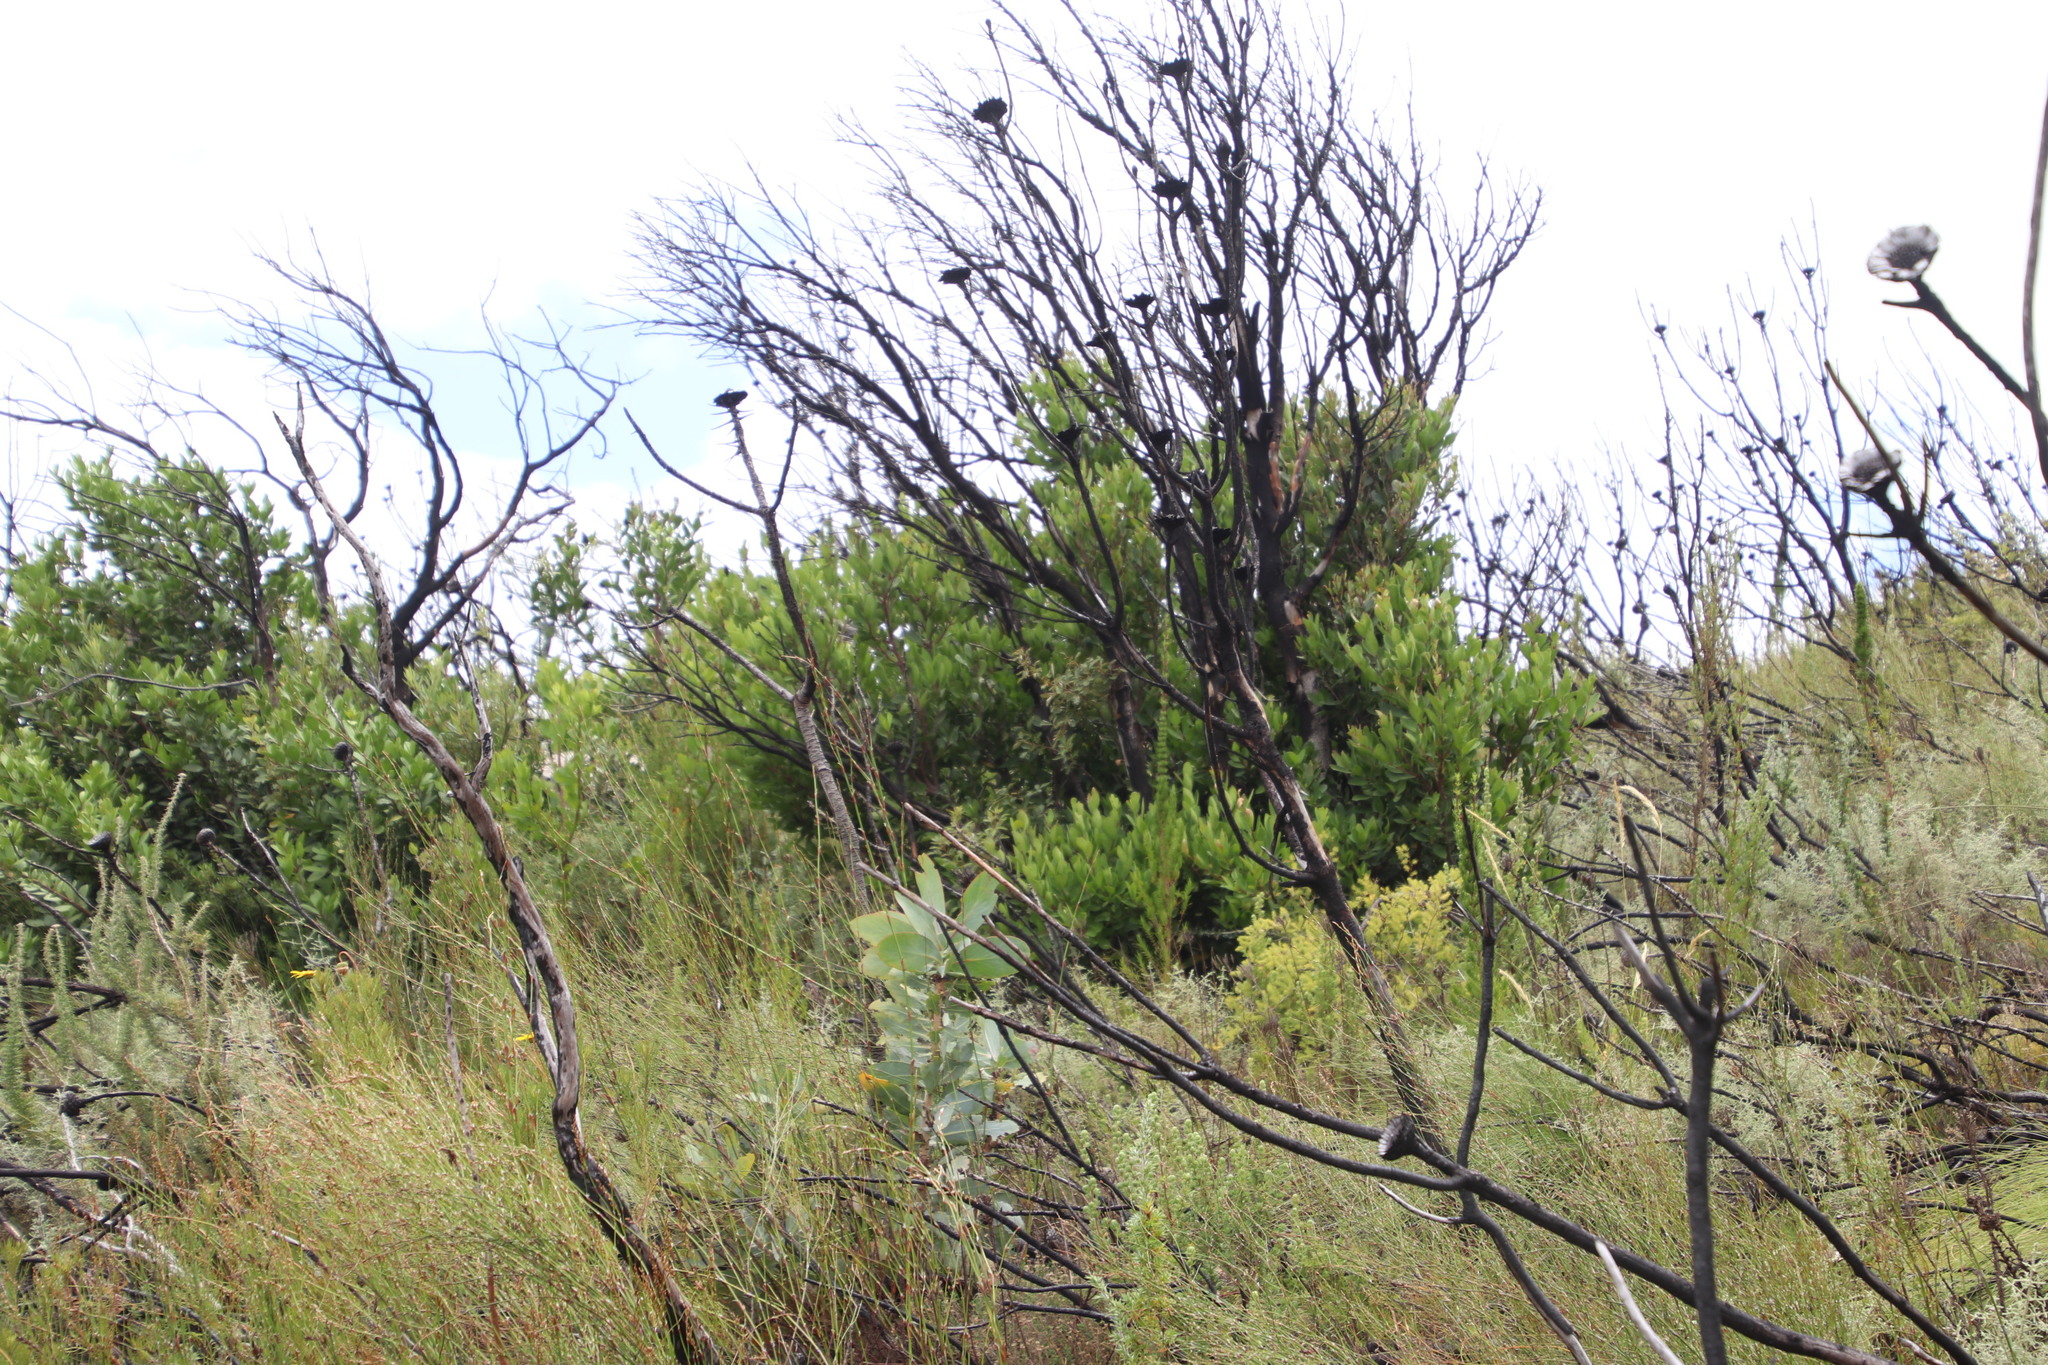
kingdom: Plantae
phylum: Tracheophyta
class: Magnoliopsida
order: Proteales
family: Proteaceae
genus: Protea
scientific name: Protea nitida
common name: Tree protea
